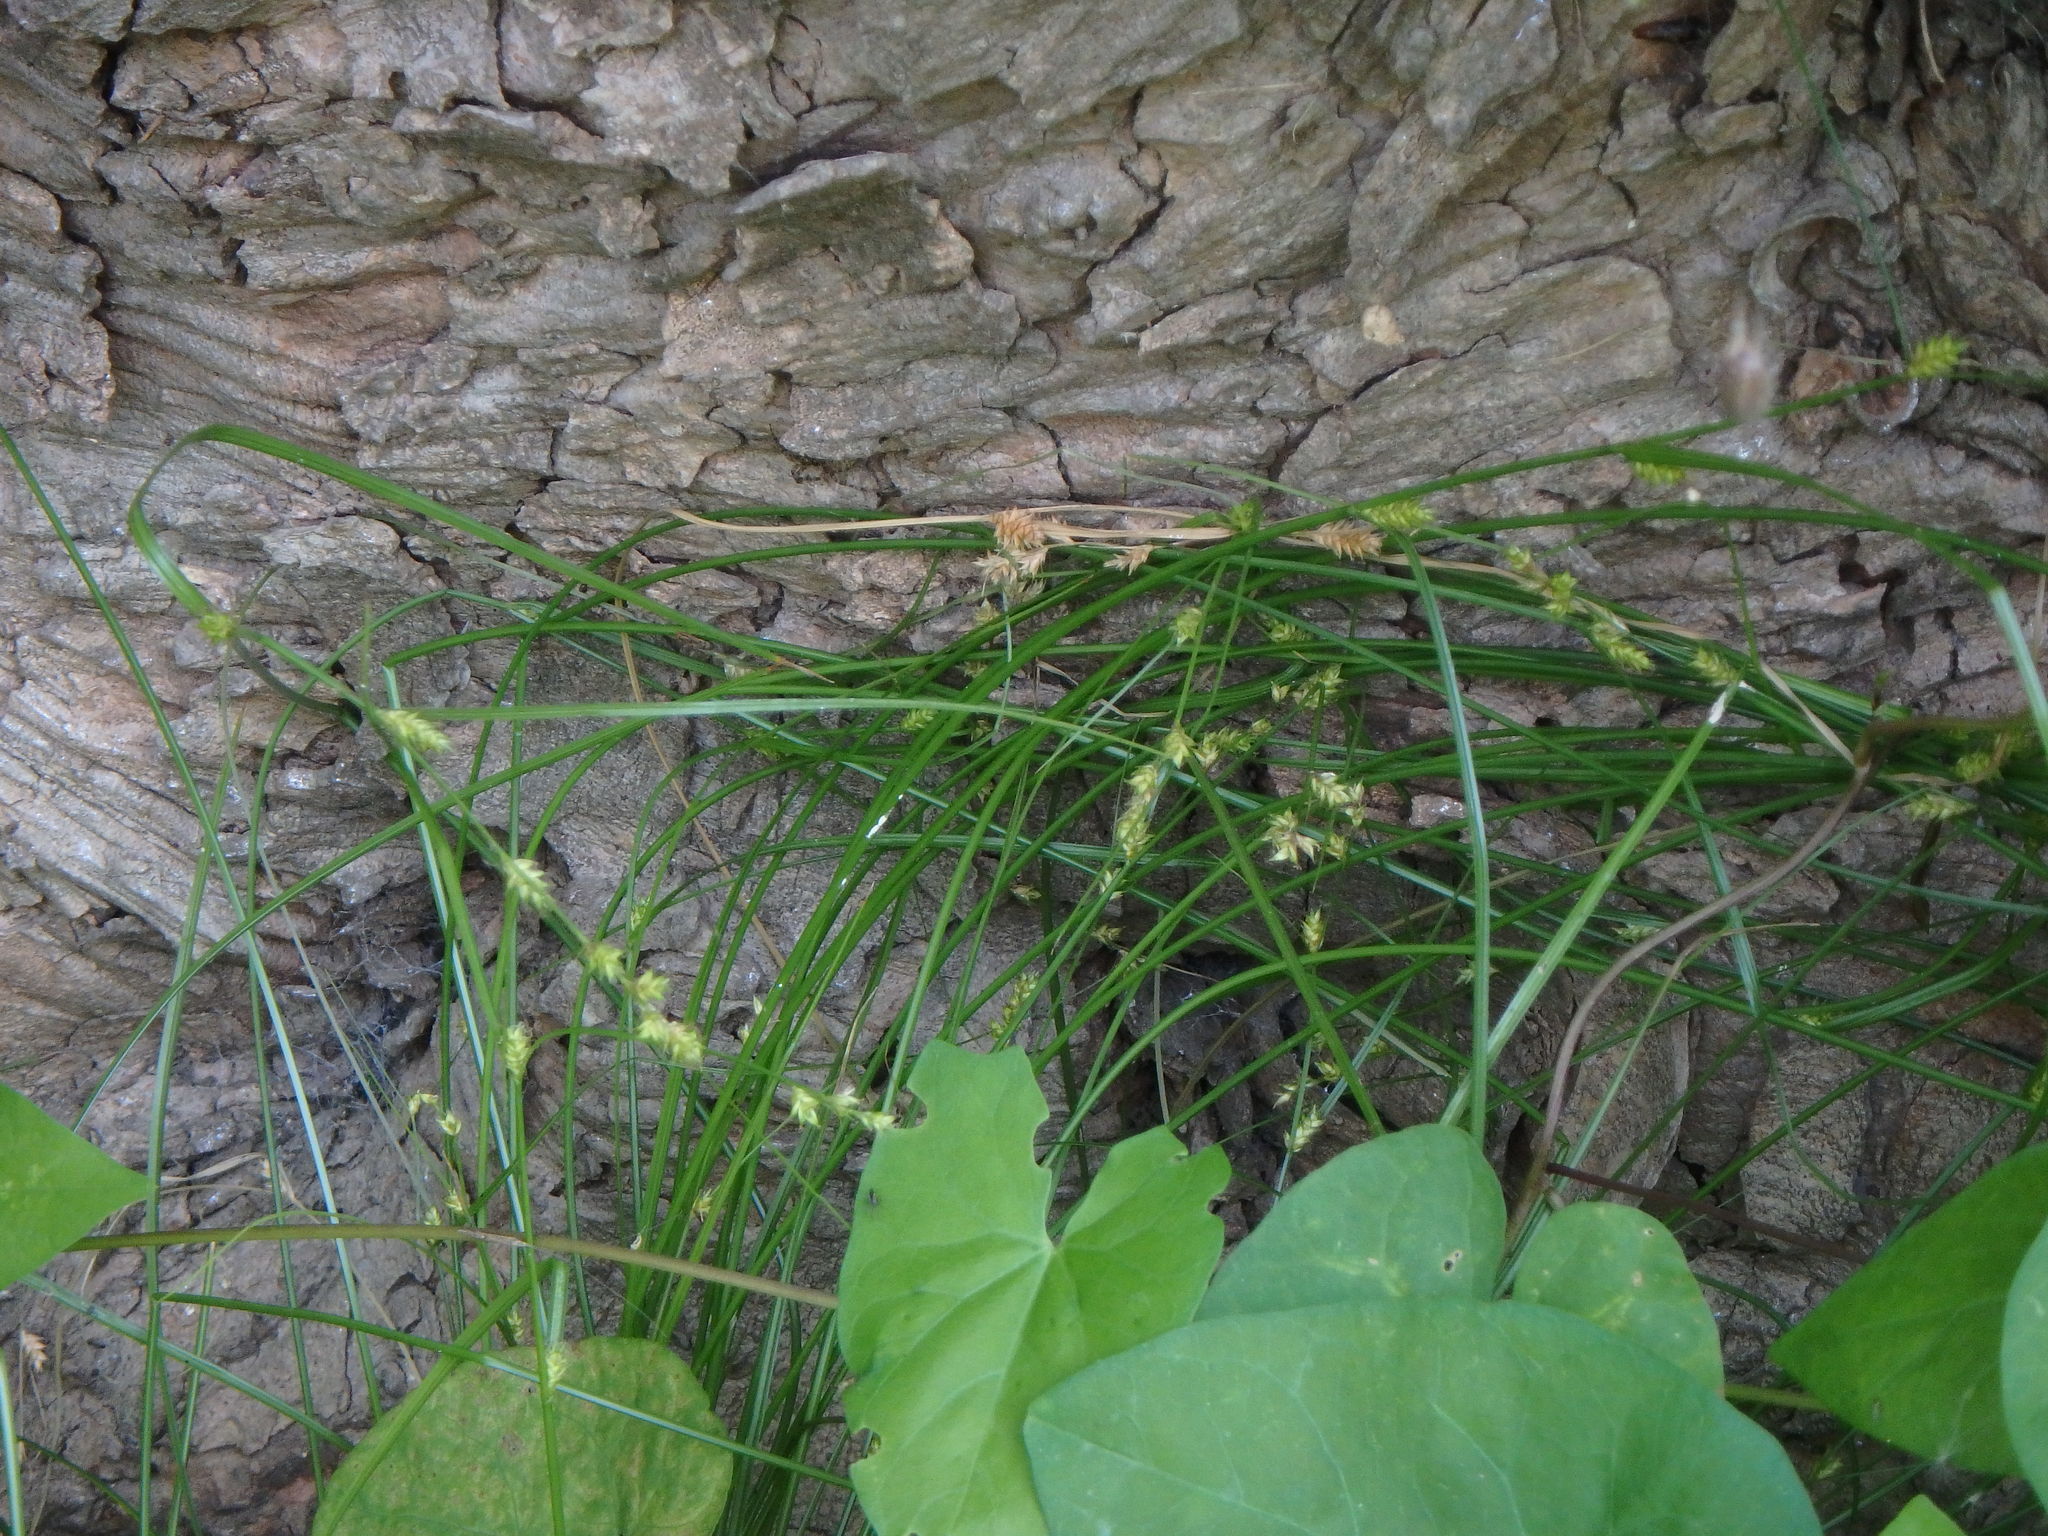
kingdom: Plantae
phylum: Tracheophyta
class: Liliopsida
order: Poales
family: Cyperaceae
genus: Carex
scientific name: Carex remota
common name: Remote sedge
